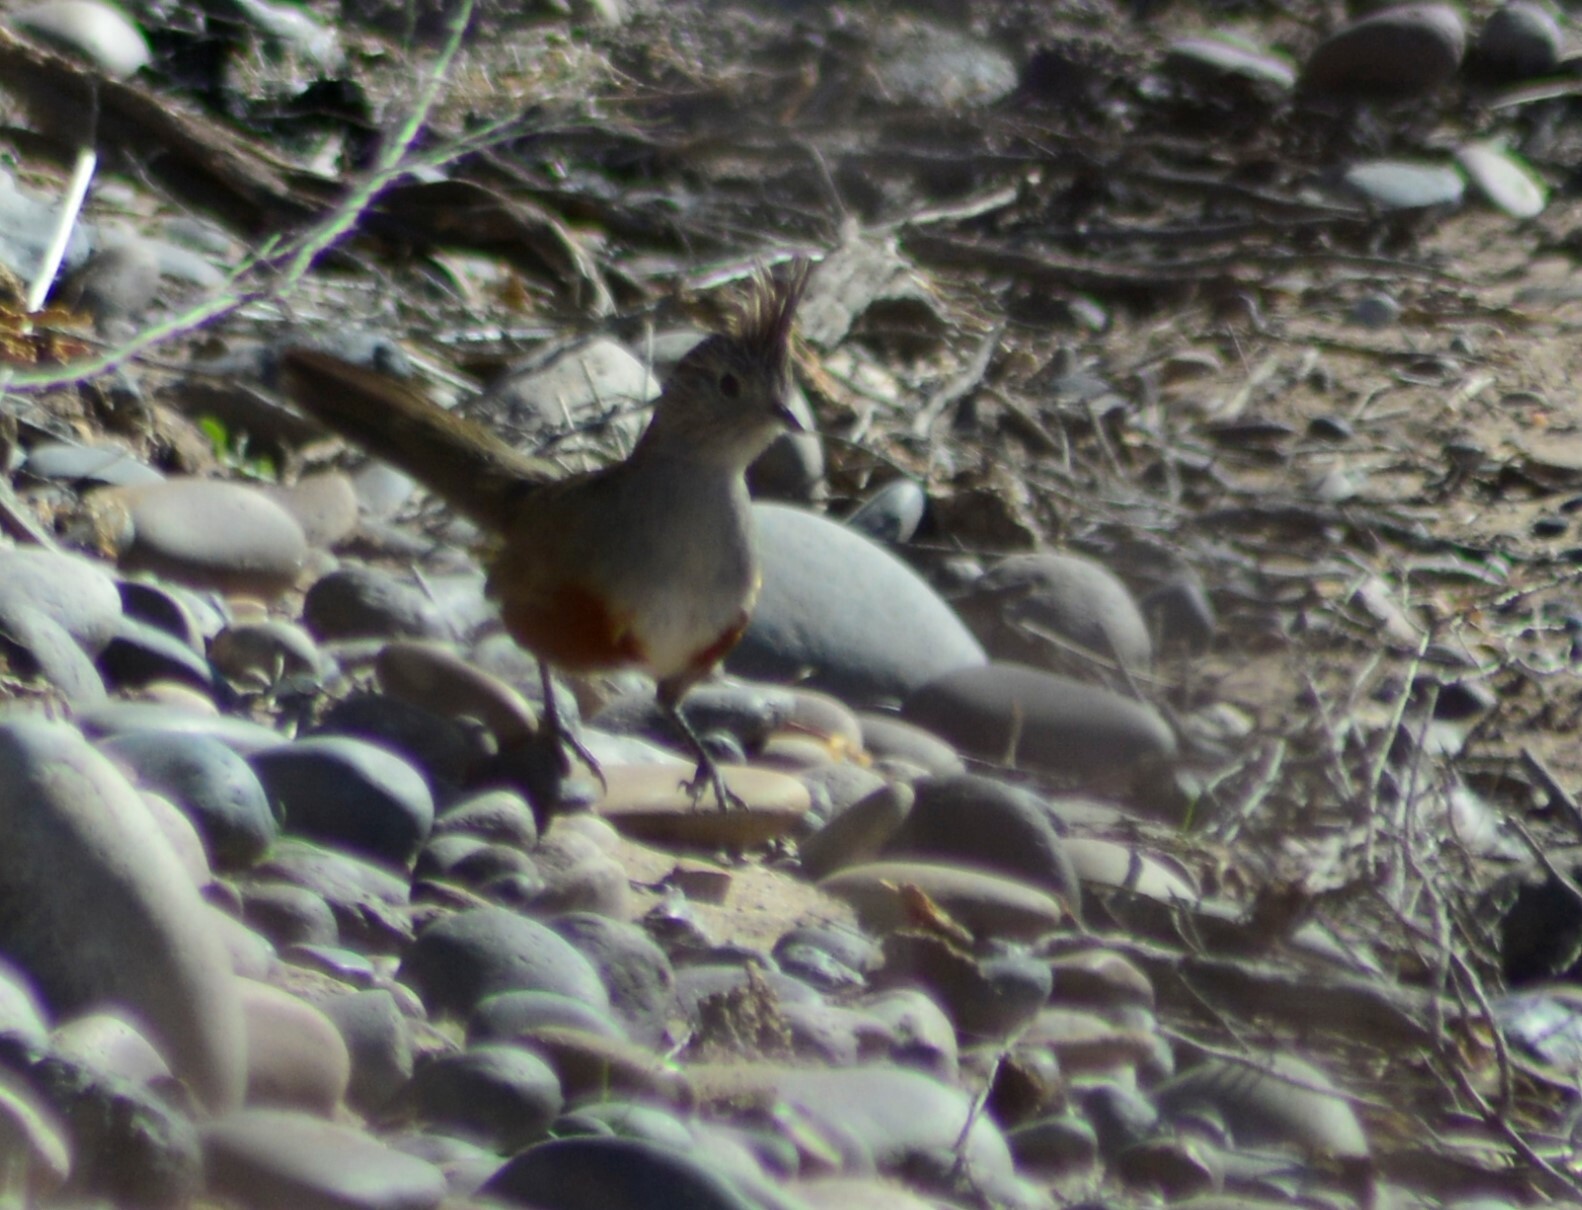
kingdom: Animalia
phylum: Chordata
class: Aves
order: Passeriformes
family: Rhinocryptidae
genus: Rhinocrypta
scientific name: Rhinocrypta lanceolata
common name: Crested gallito
